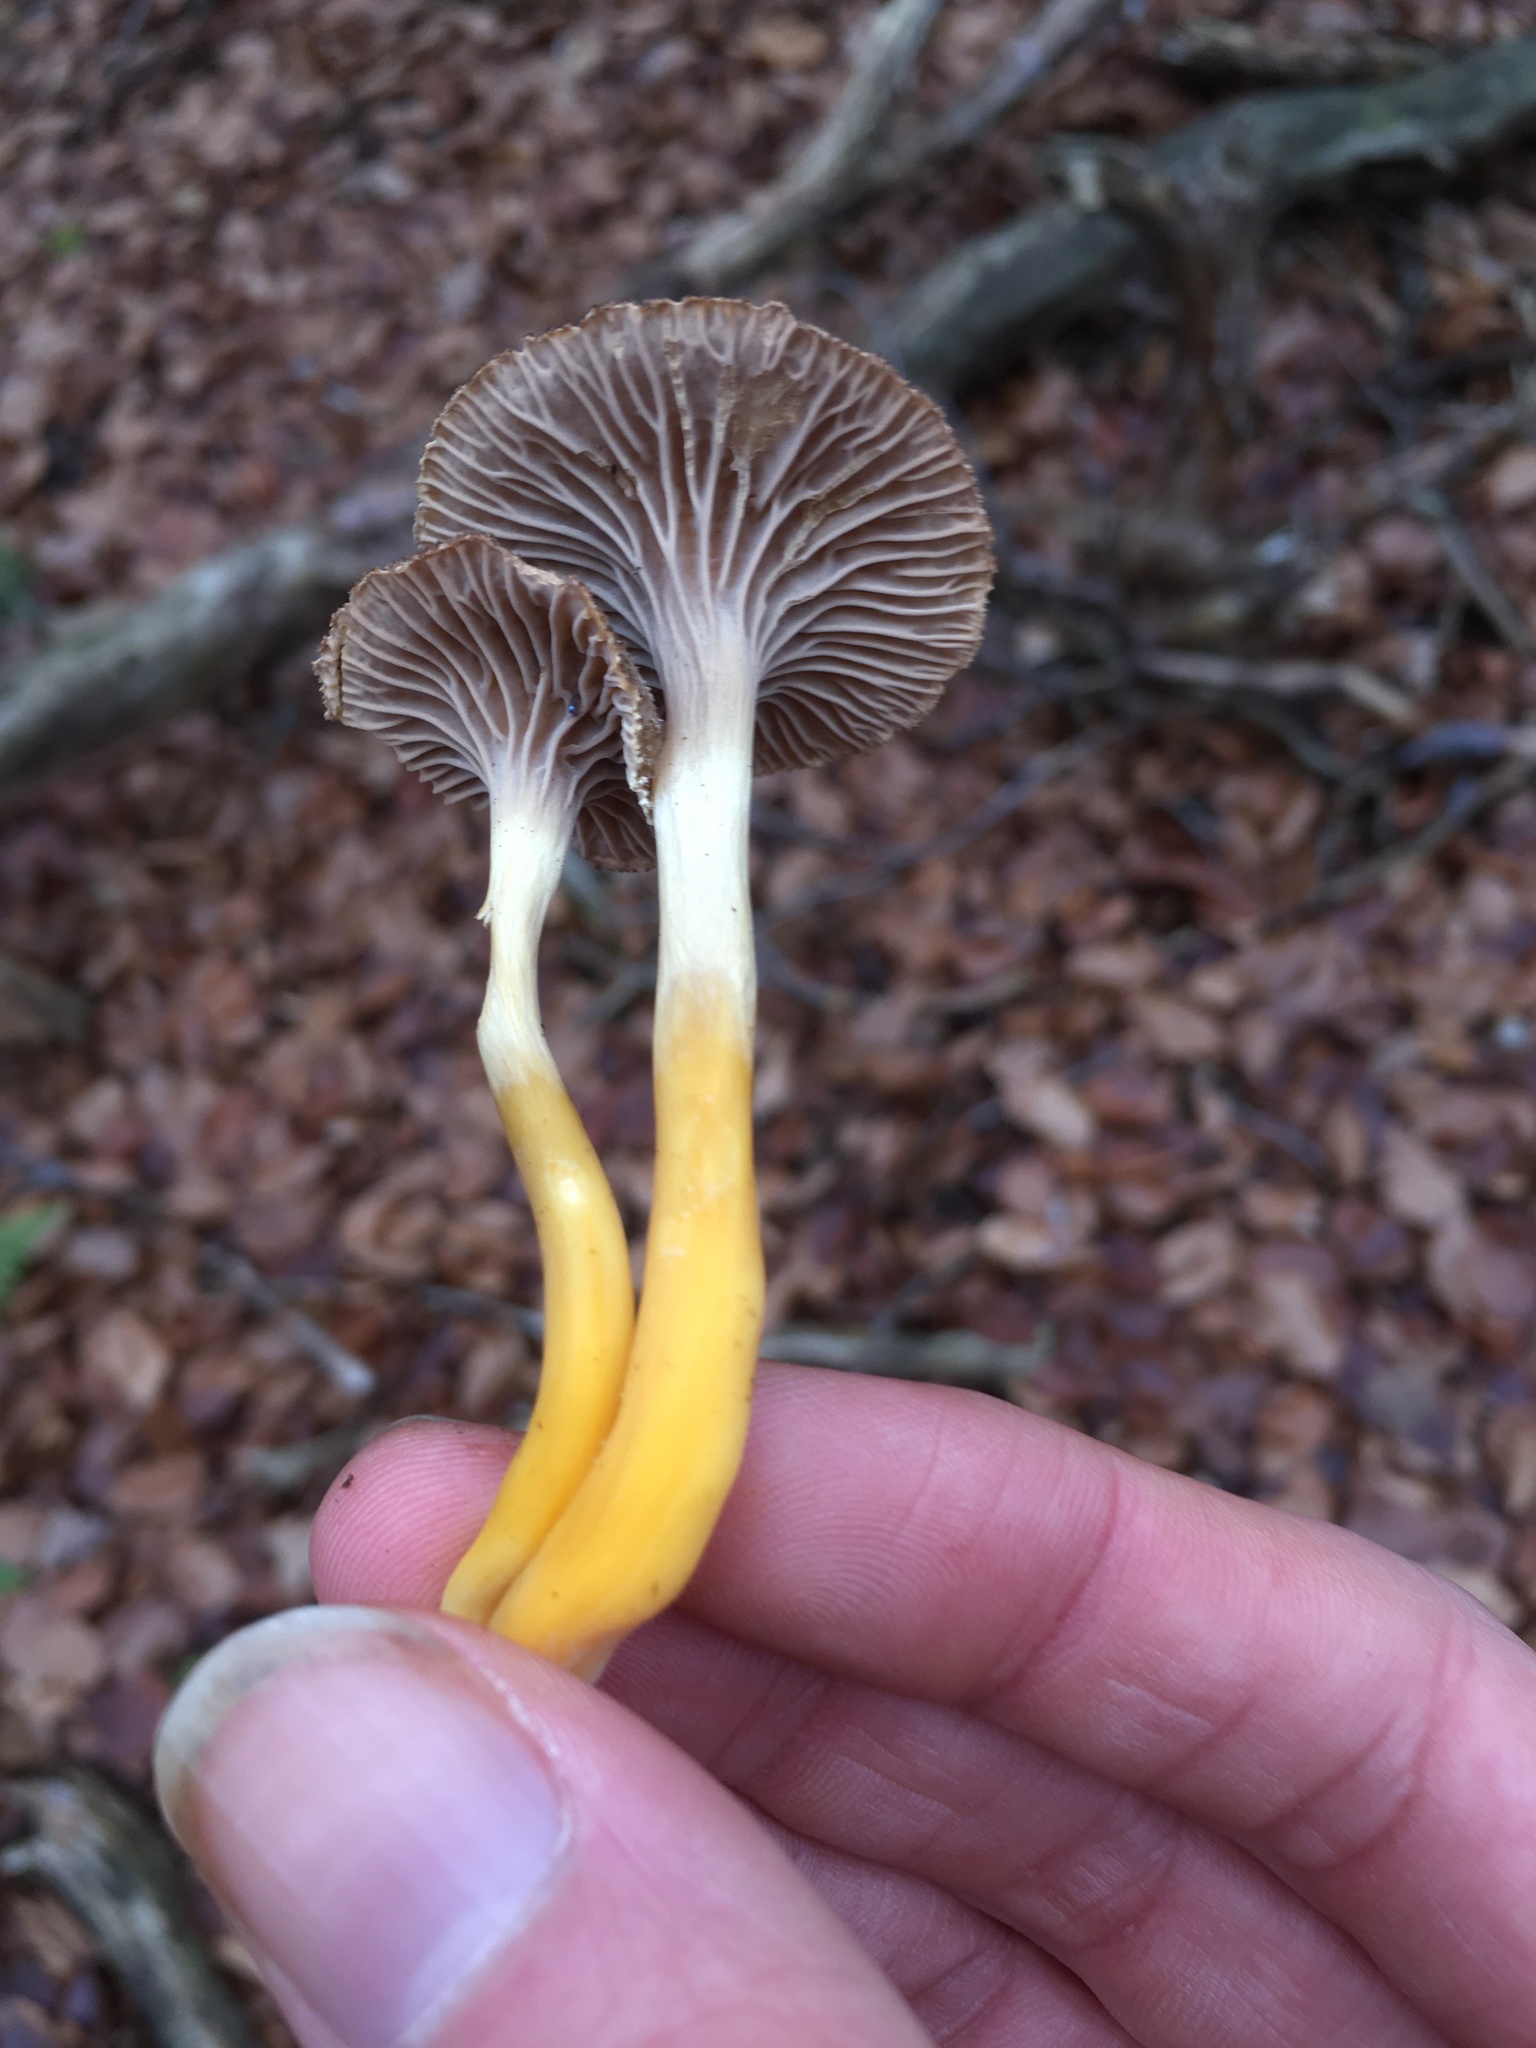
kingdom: Fungi
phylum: Basidiomycota
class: Agaricomycetes
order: Cantharellales
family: Hydnaceae
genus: Craterellus
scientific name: Craterellus tubaeformis
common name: Yellowfoot
